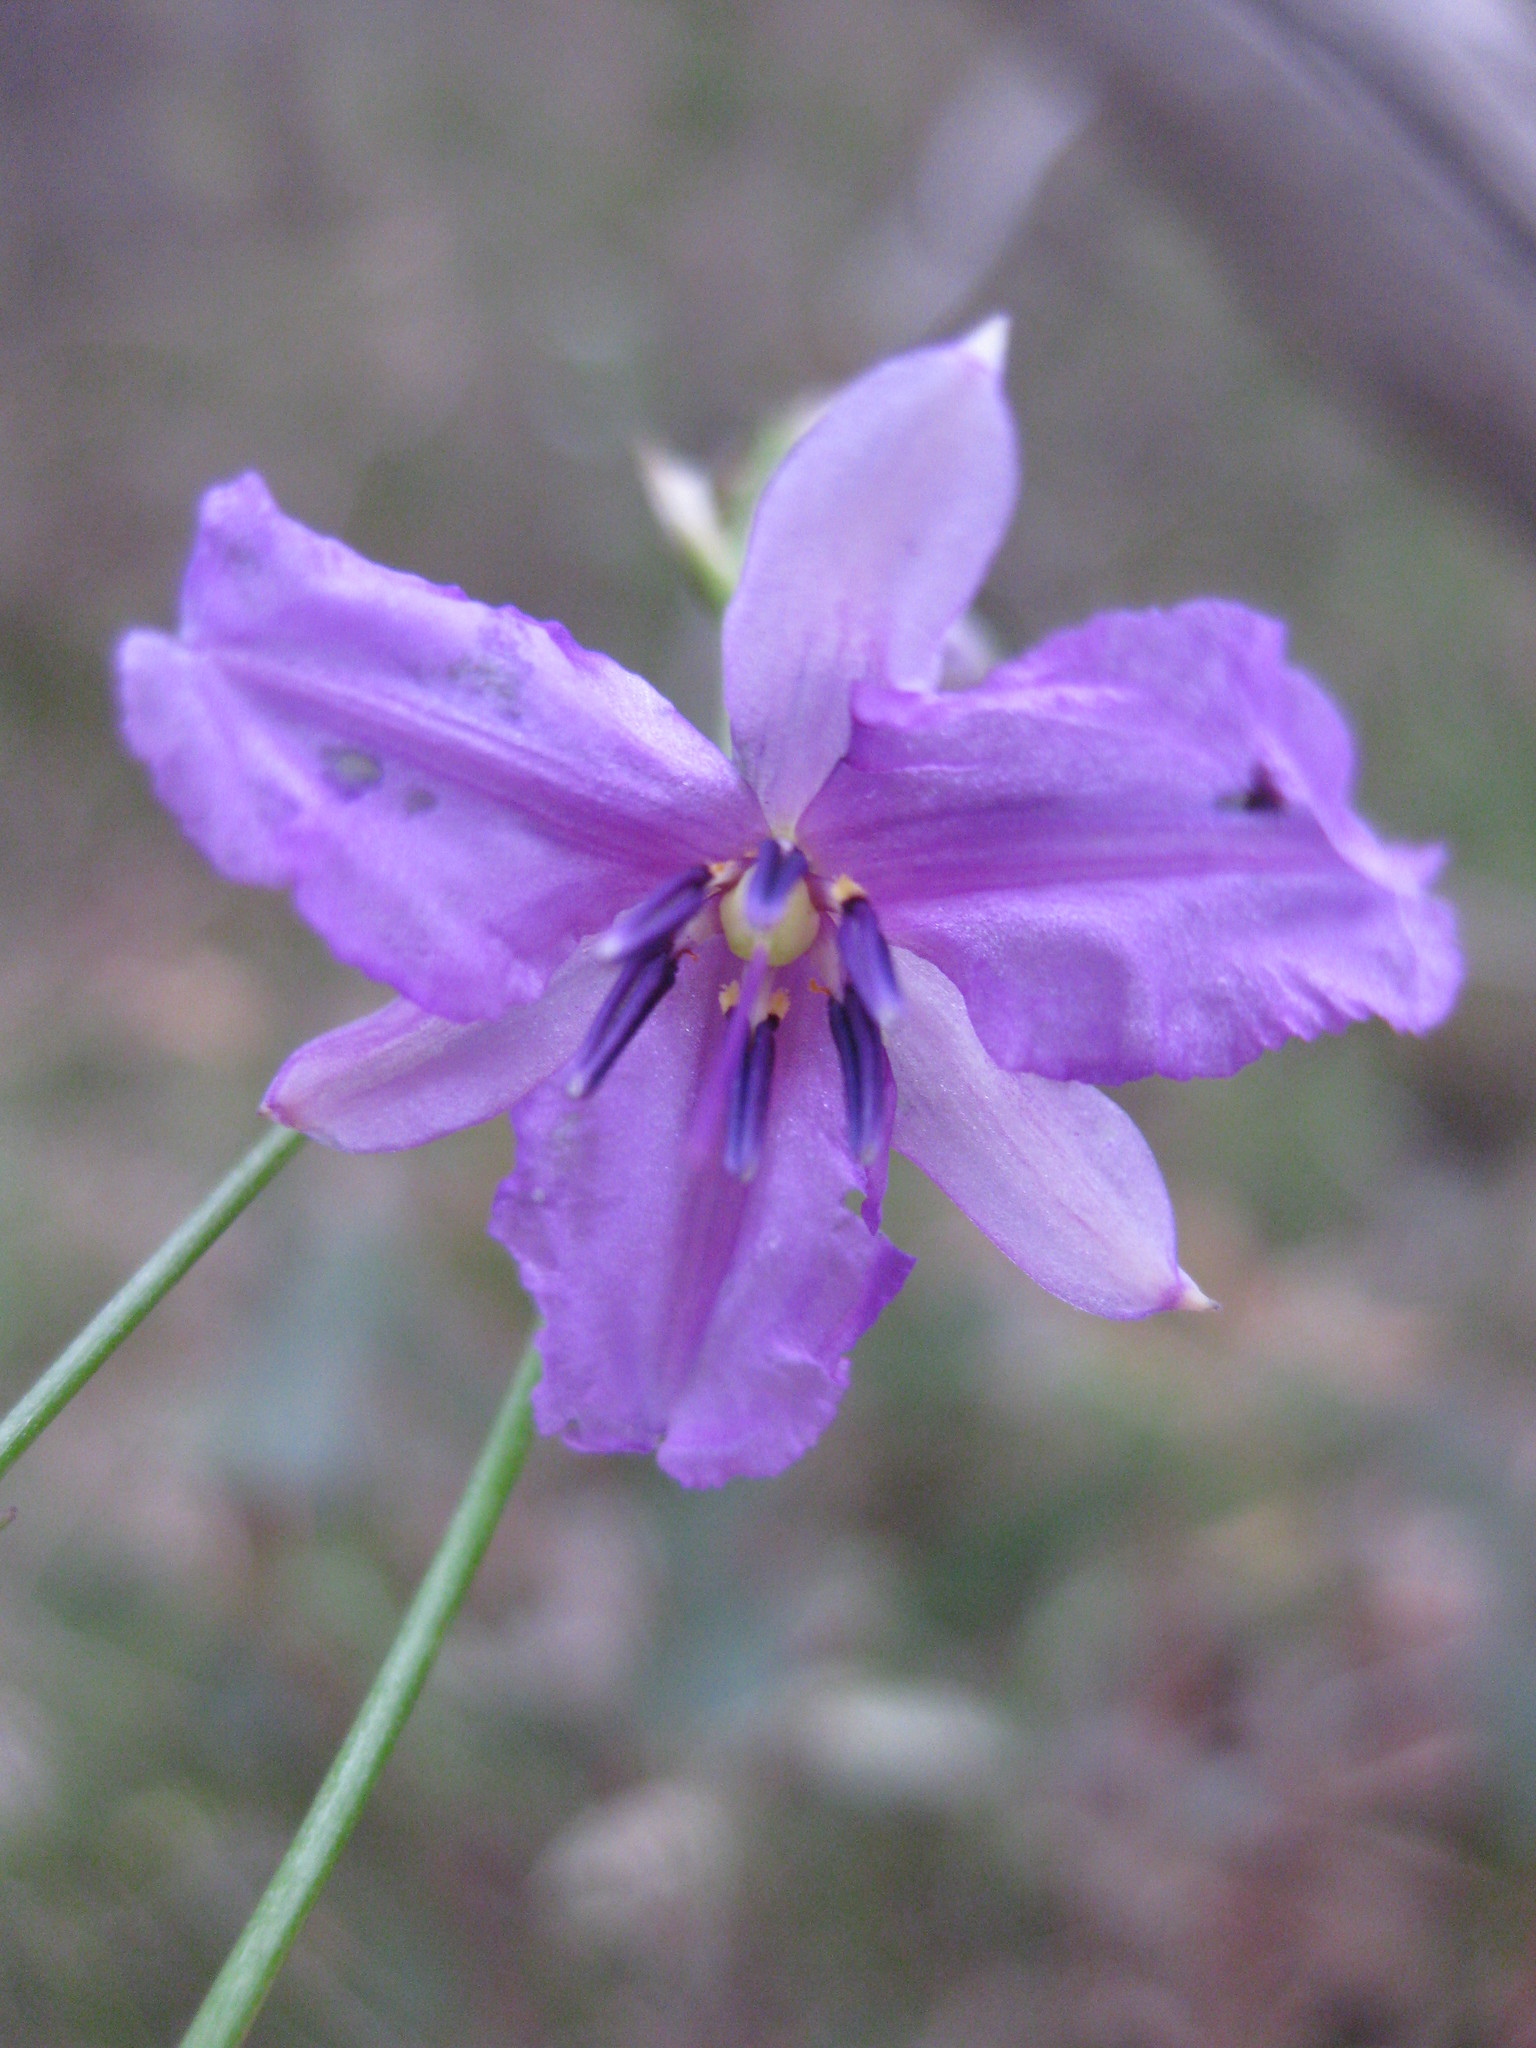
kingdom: Plantae
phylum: Tracheophyta
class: Liliopsida
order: Asparagales
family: Asparagaceae
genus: Arthropodium
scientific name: Arthropodium strictum
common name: Chocolate-lily
